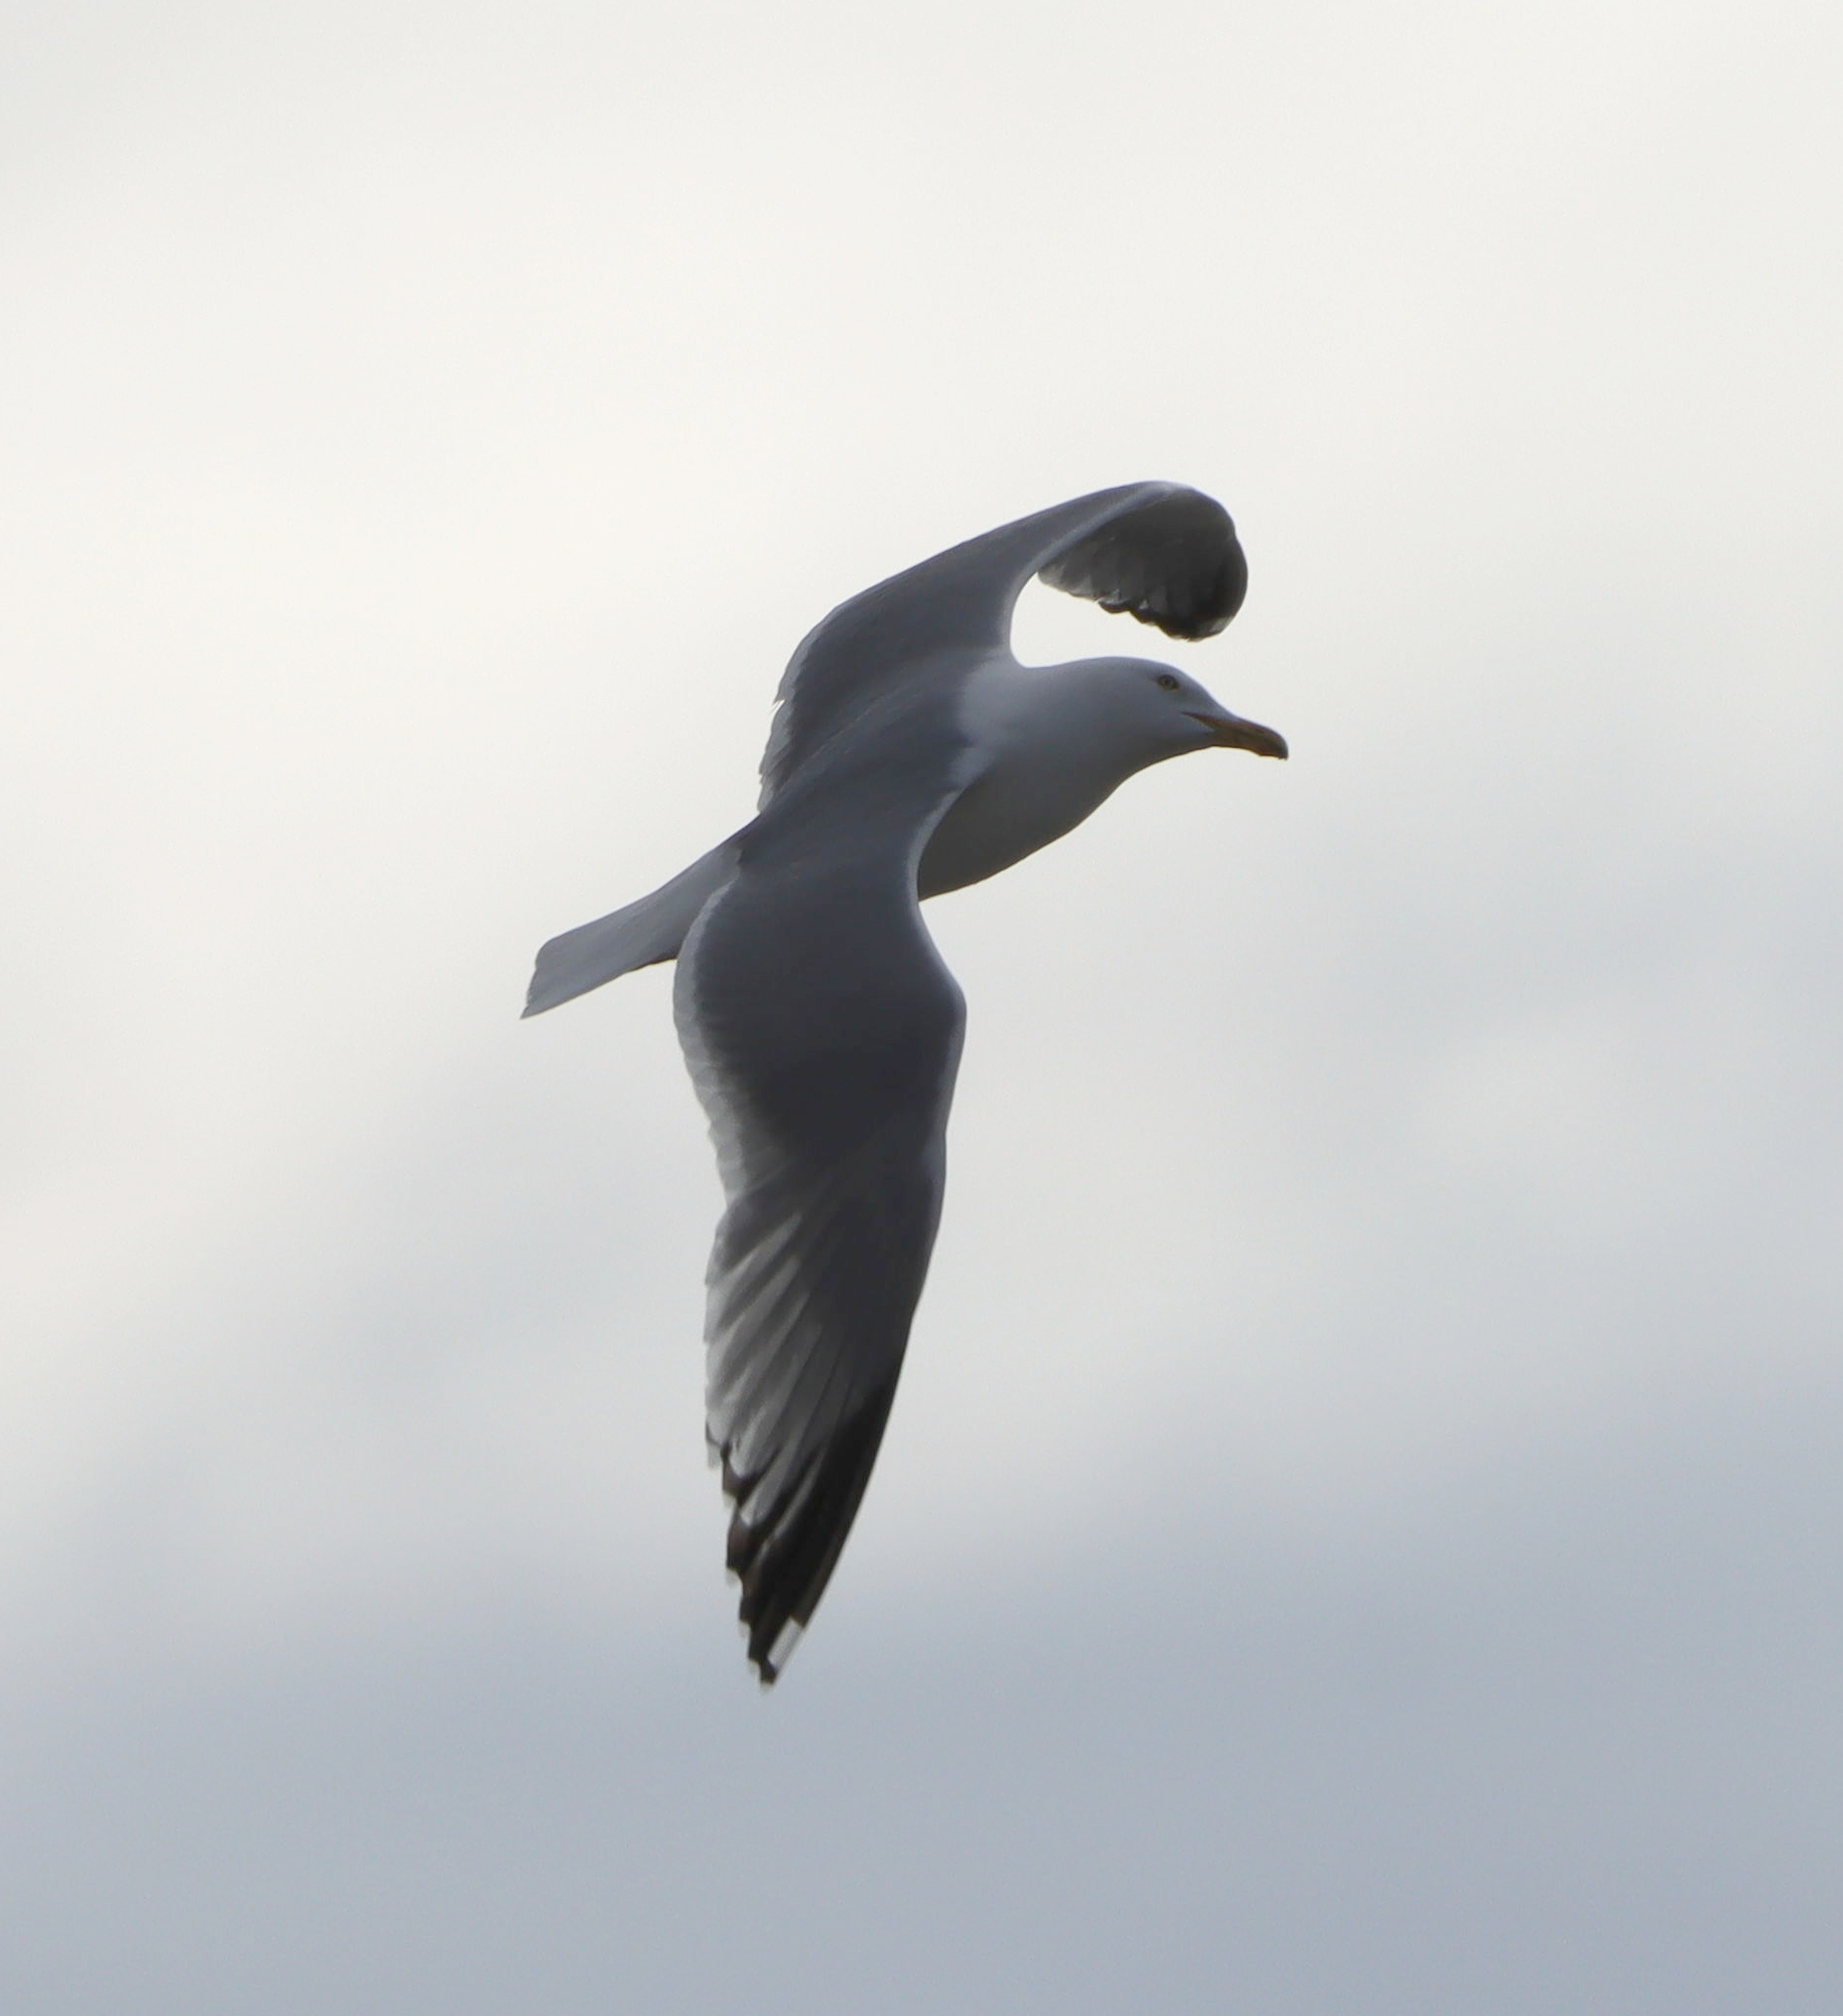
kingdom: Animalia
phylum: Chordata
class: Aves
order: Charadriiformes
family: Laridae
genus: Larus
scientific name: Larus argentatus
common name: Herring gull
